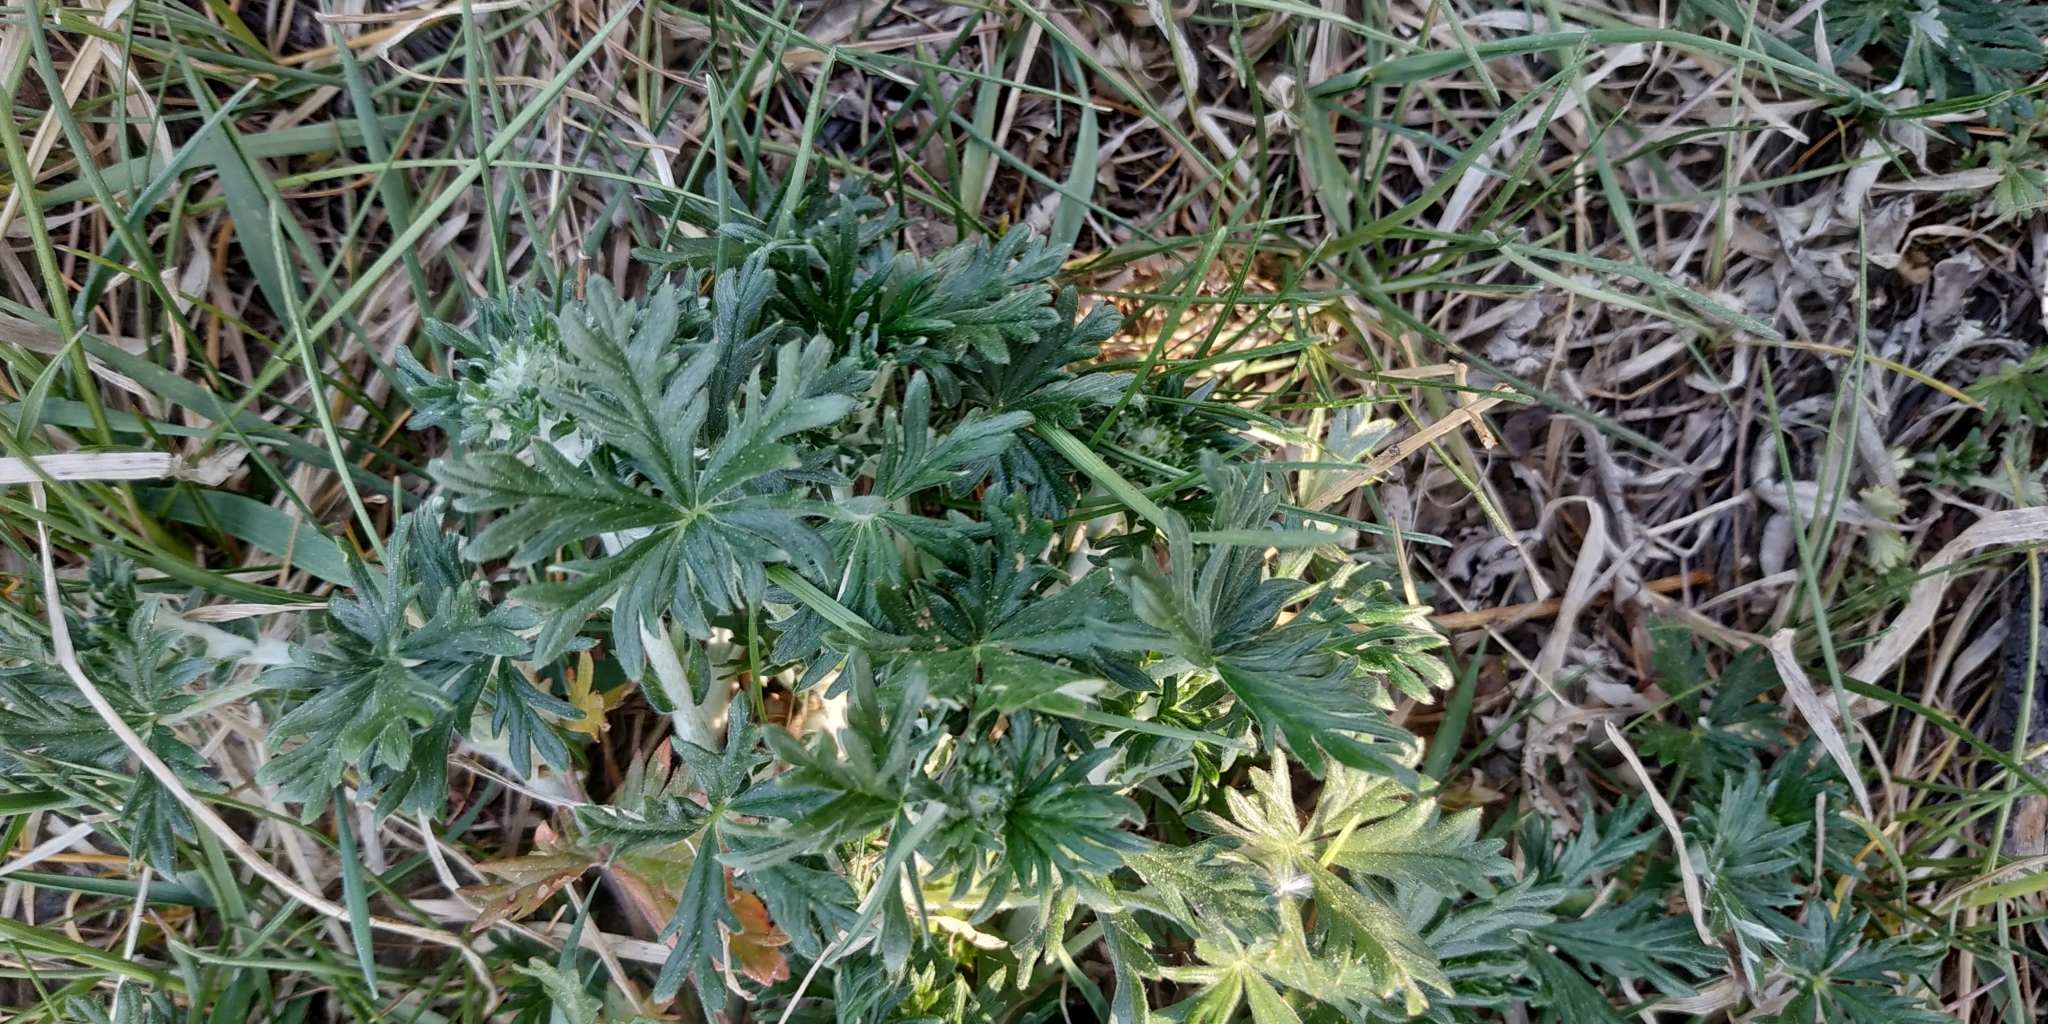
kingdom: Plantae
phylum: Tracheophyta
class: Magnoliopsida
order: Rosales
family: Rosaceae
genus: Potentilla
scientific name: Potentilla argentea
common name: Hoary cinquefoil
